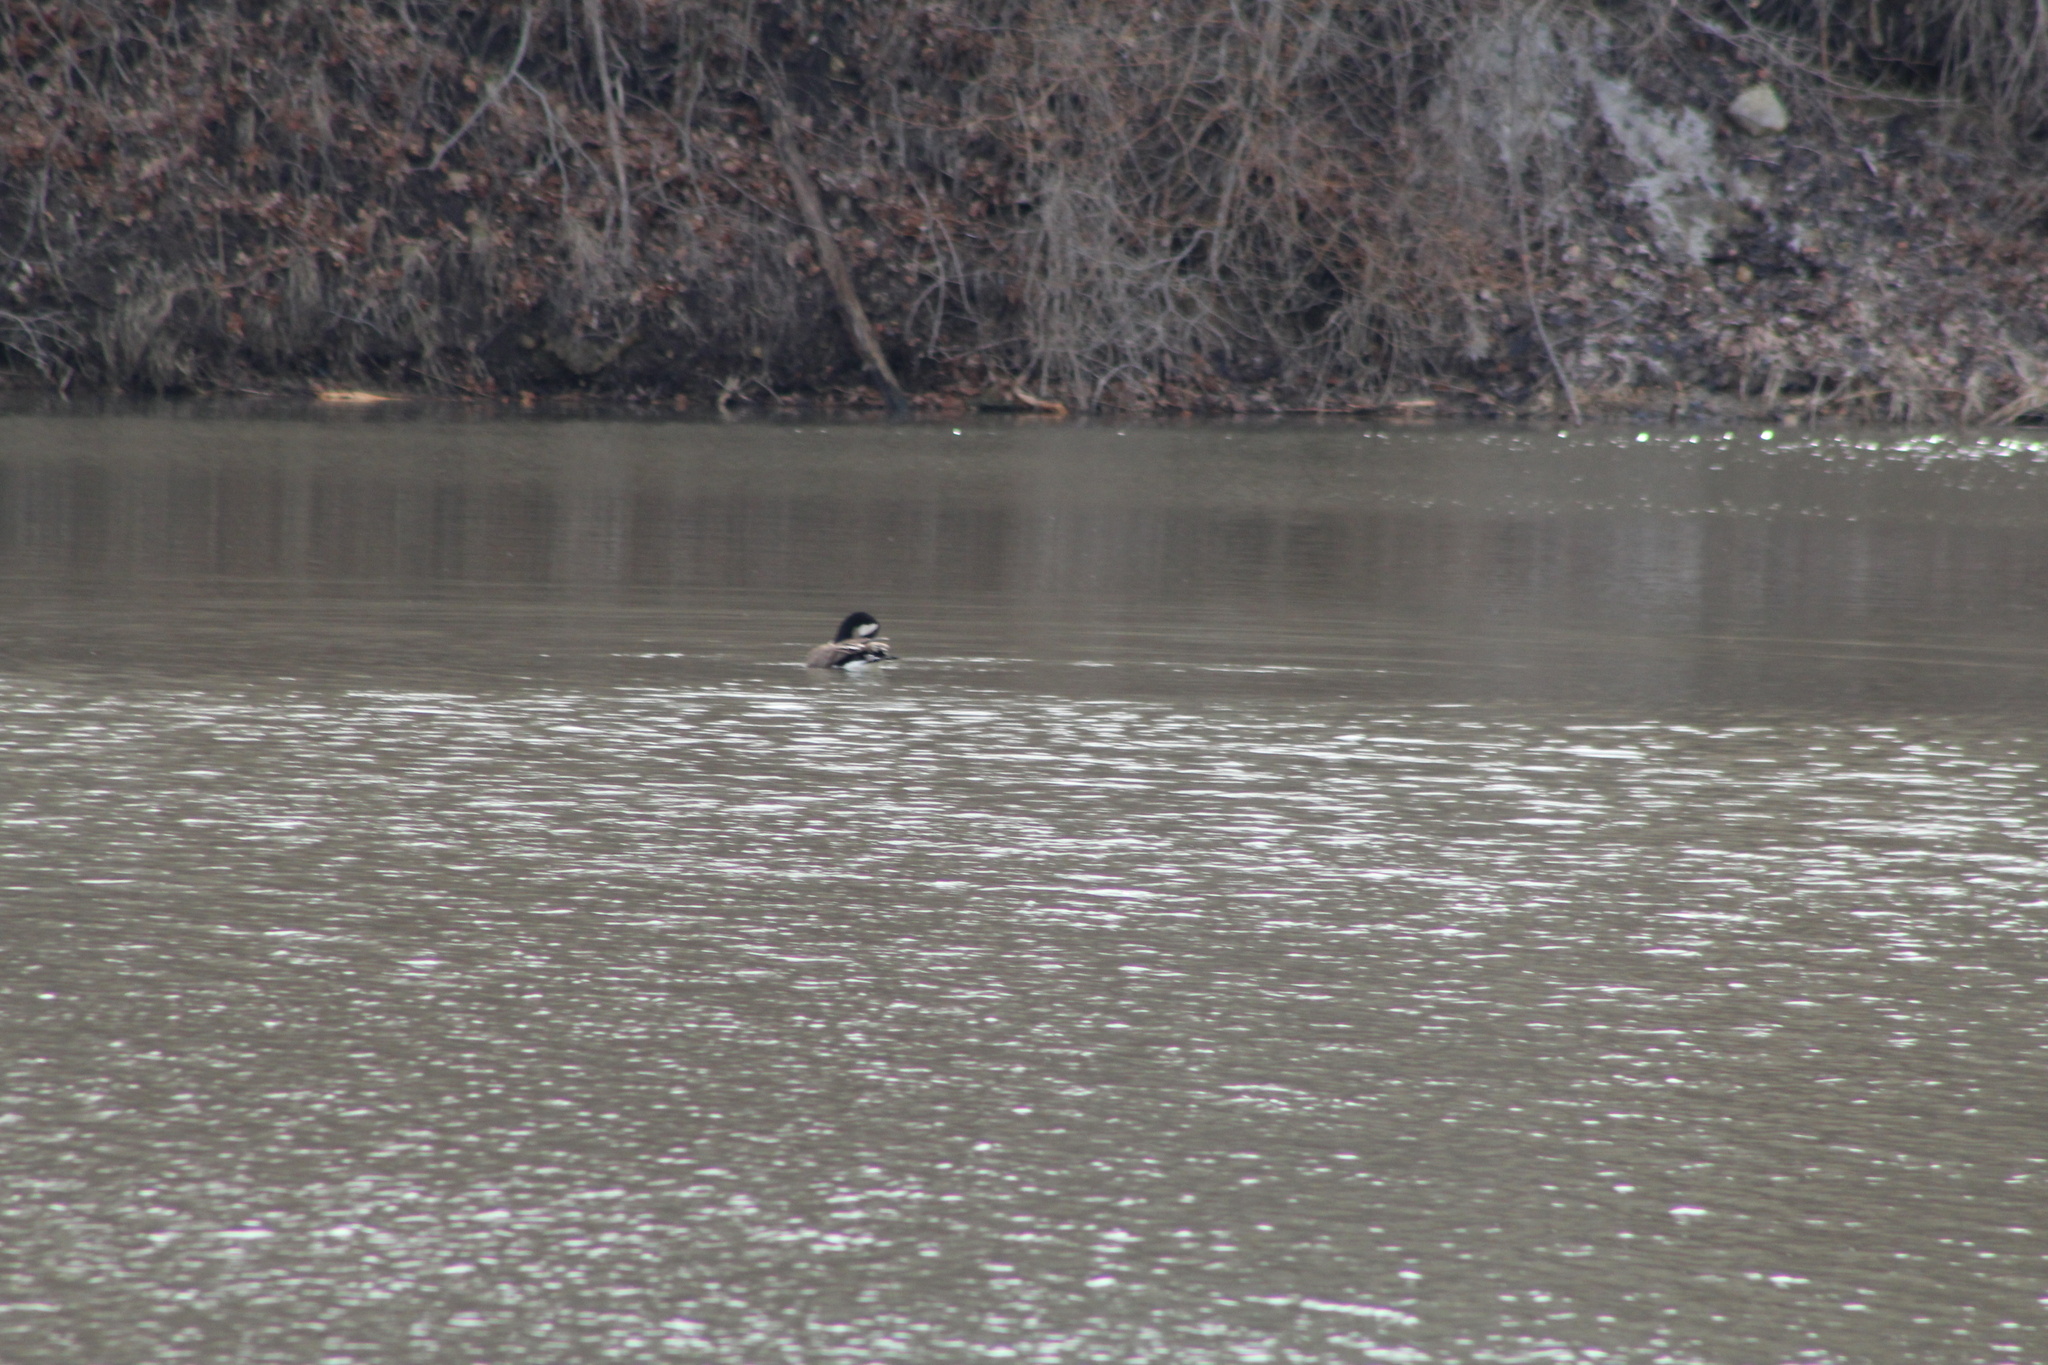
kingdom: Animalia
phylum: Chordata
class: Aves
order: Anseriformes
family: Anatidae
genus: Branta
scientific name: Branta canadensis
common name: Canada goose
